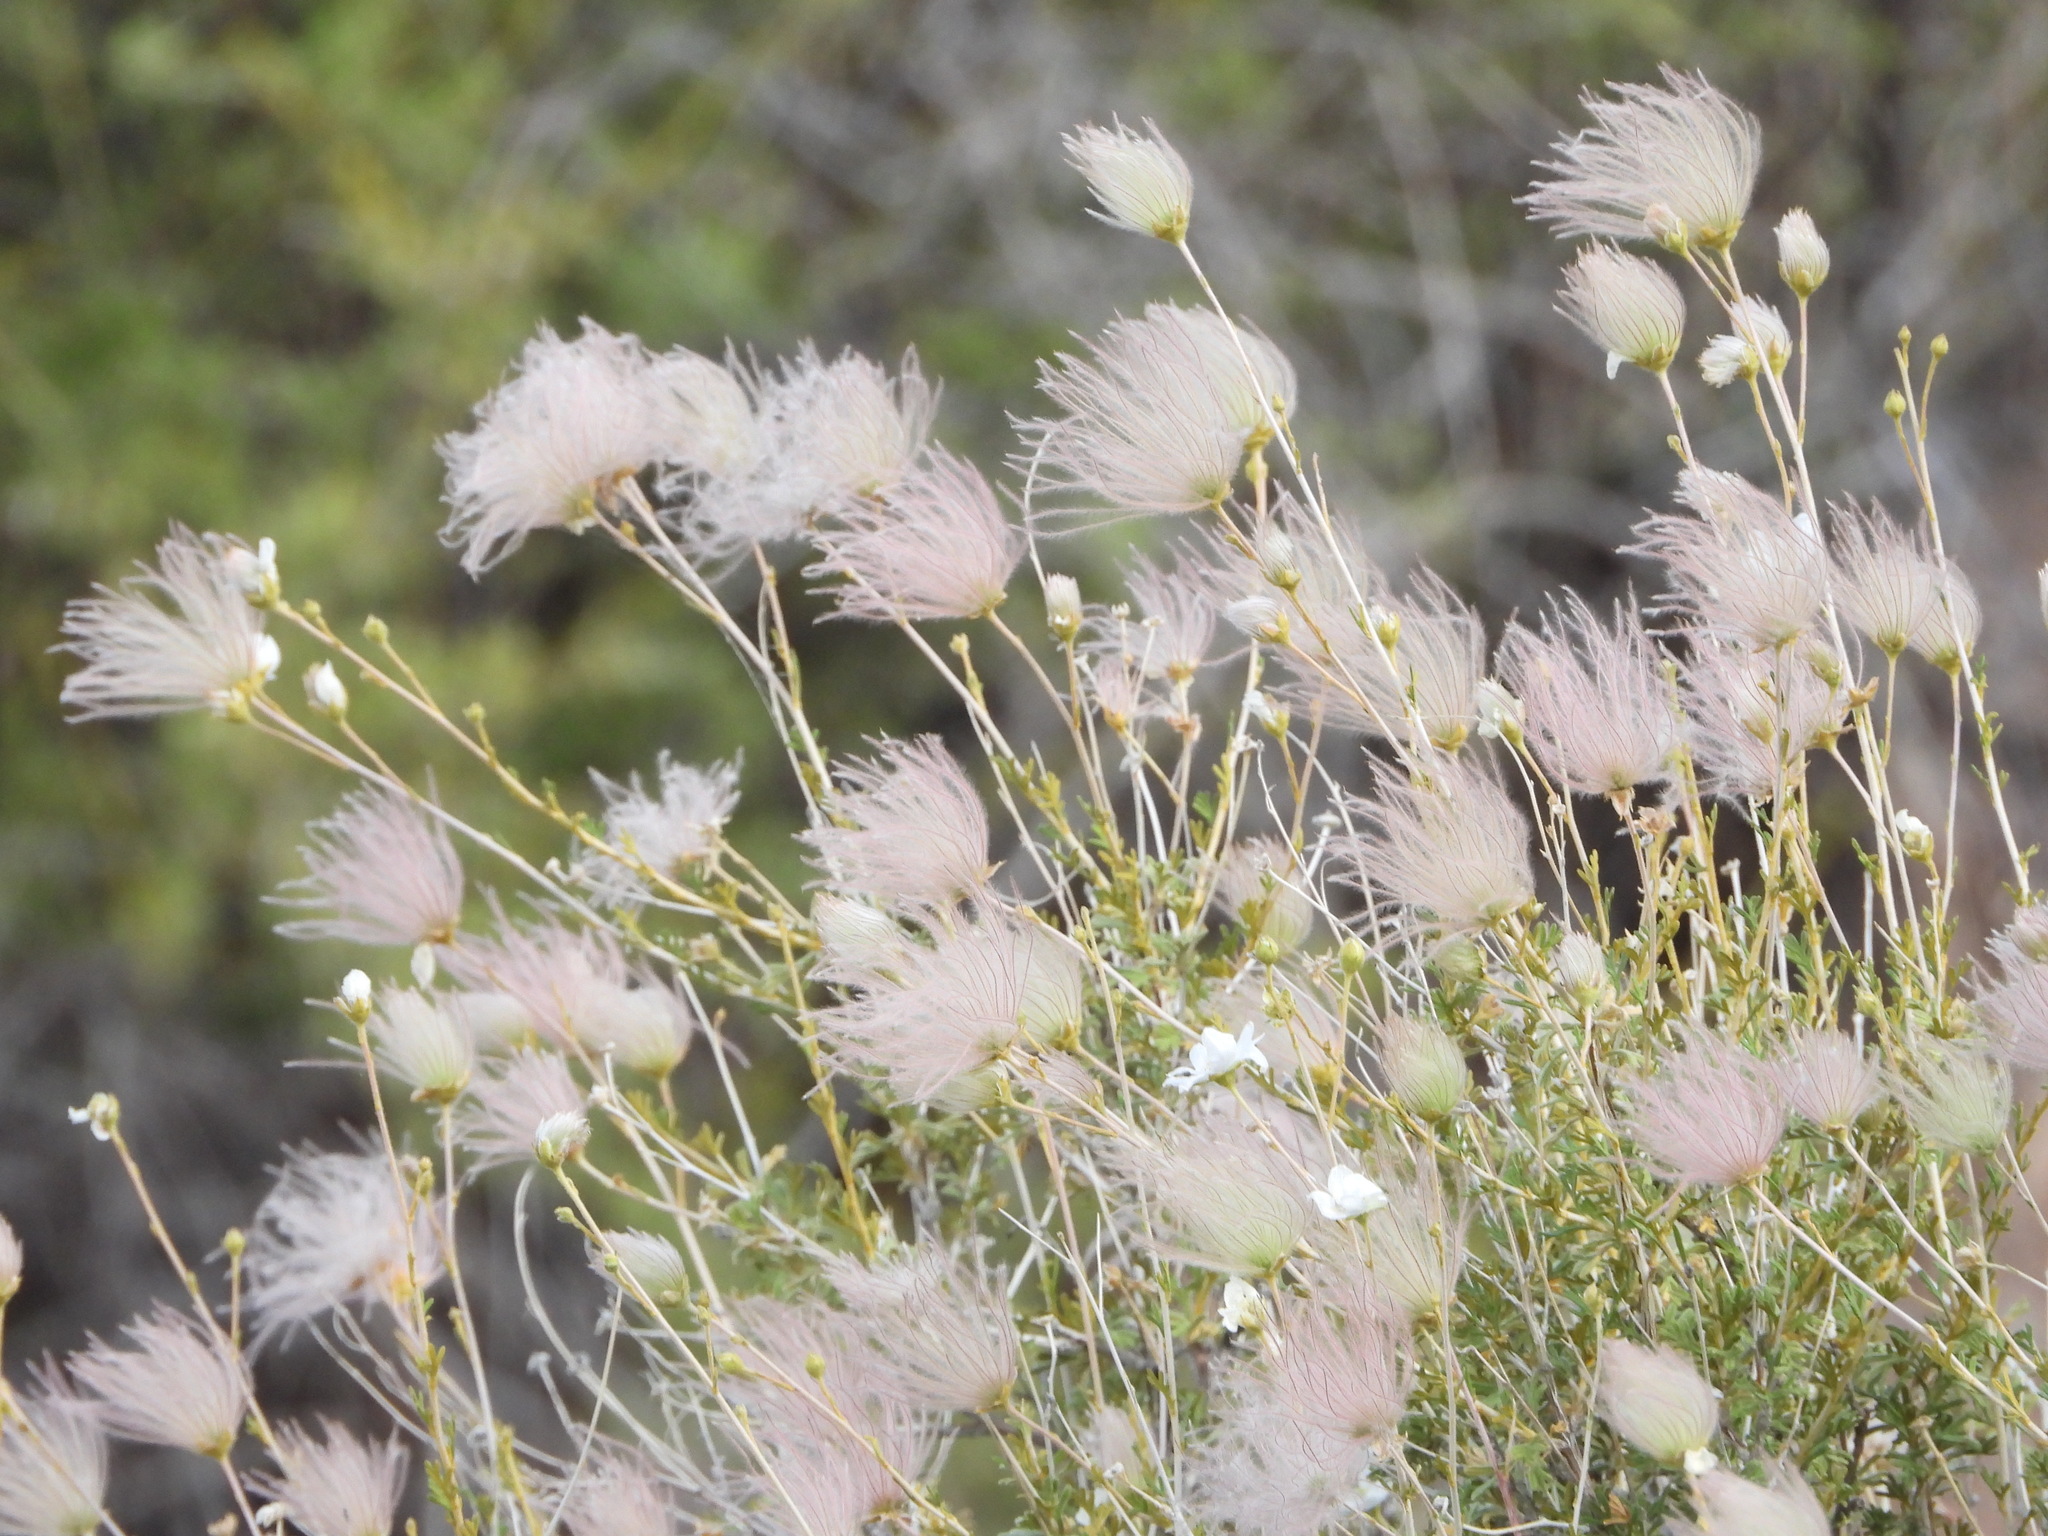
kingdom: Plantae
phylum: Tracheophyta
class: Magnoliopsida
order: Rosales
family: Rosaceae
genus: Fallugia
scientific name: Fallugia paradoxa
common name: Apache-plume
